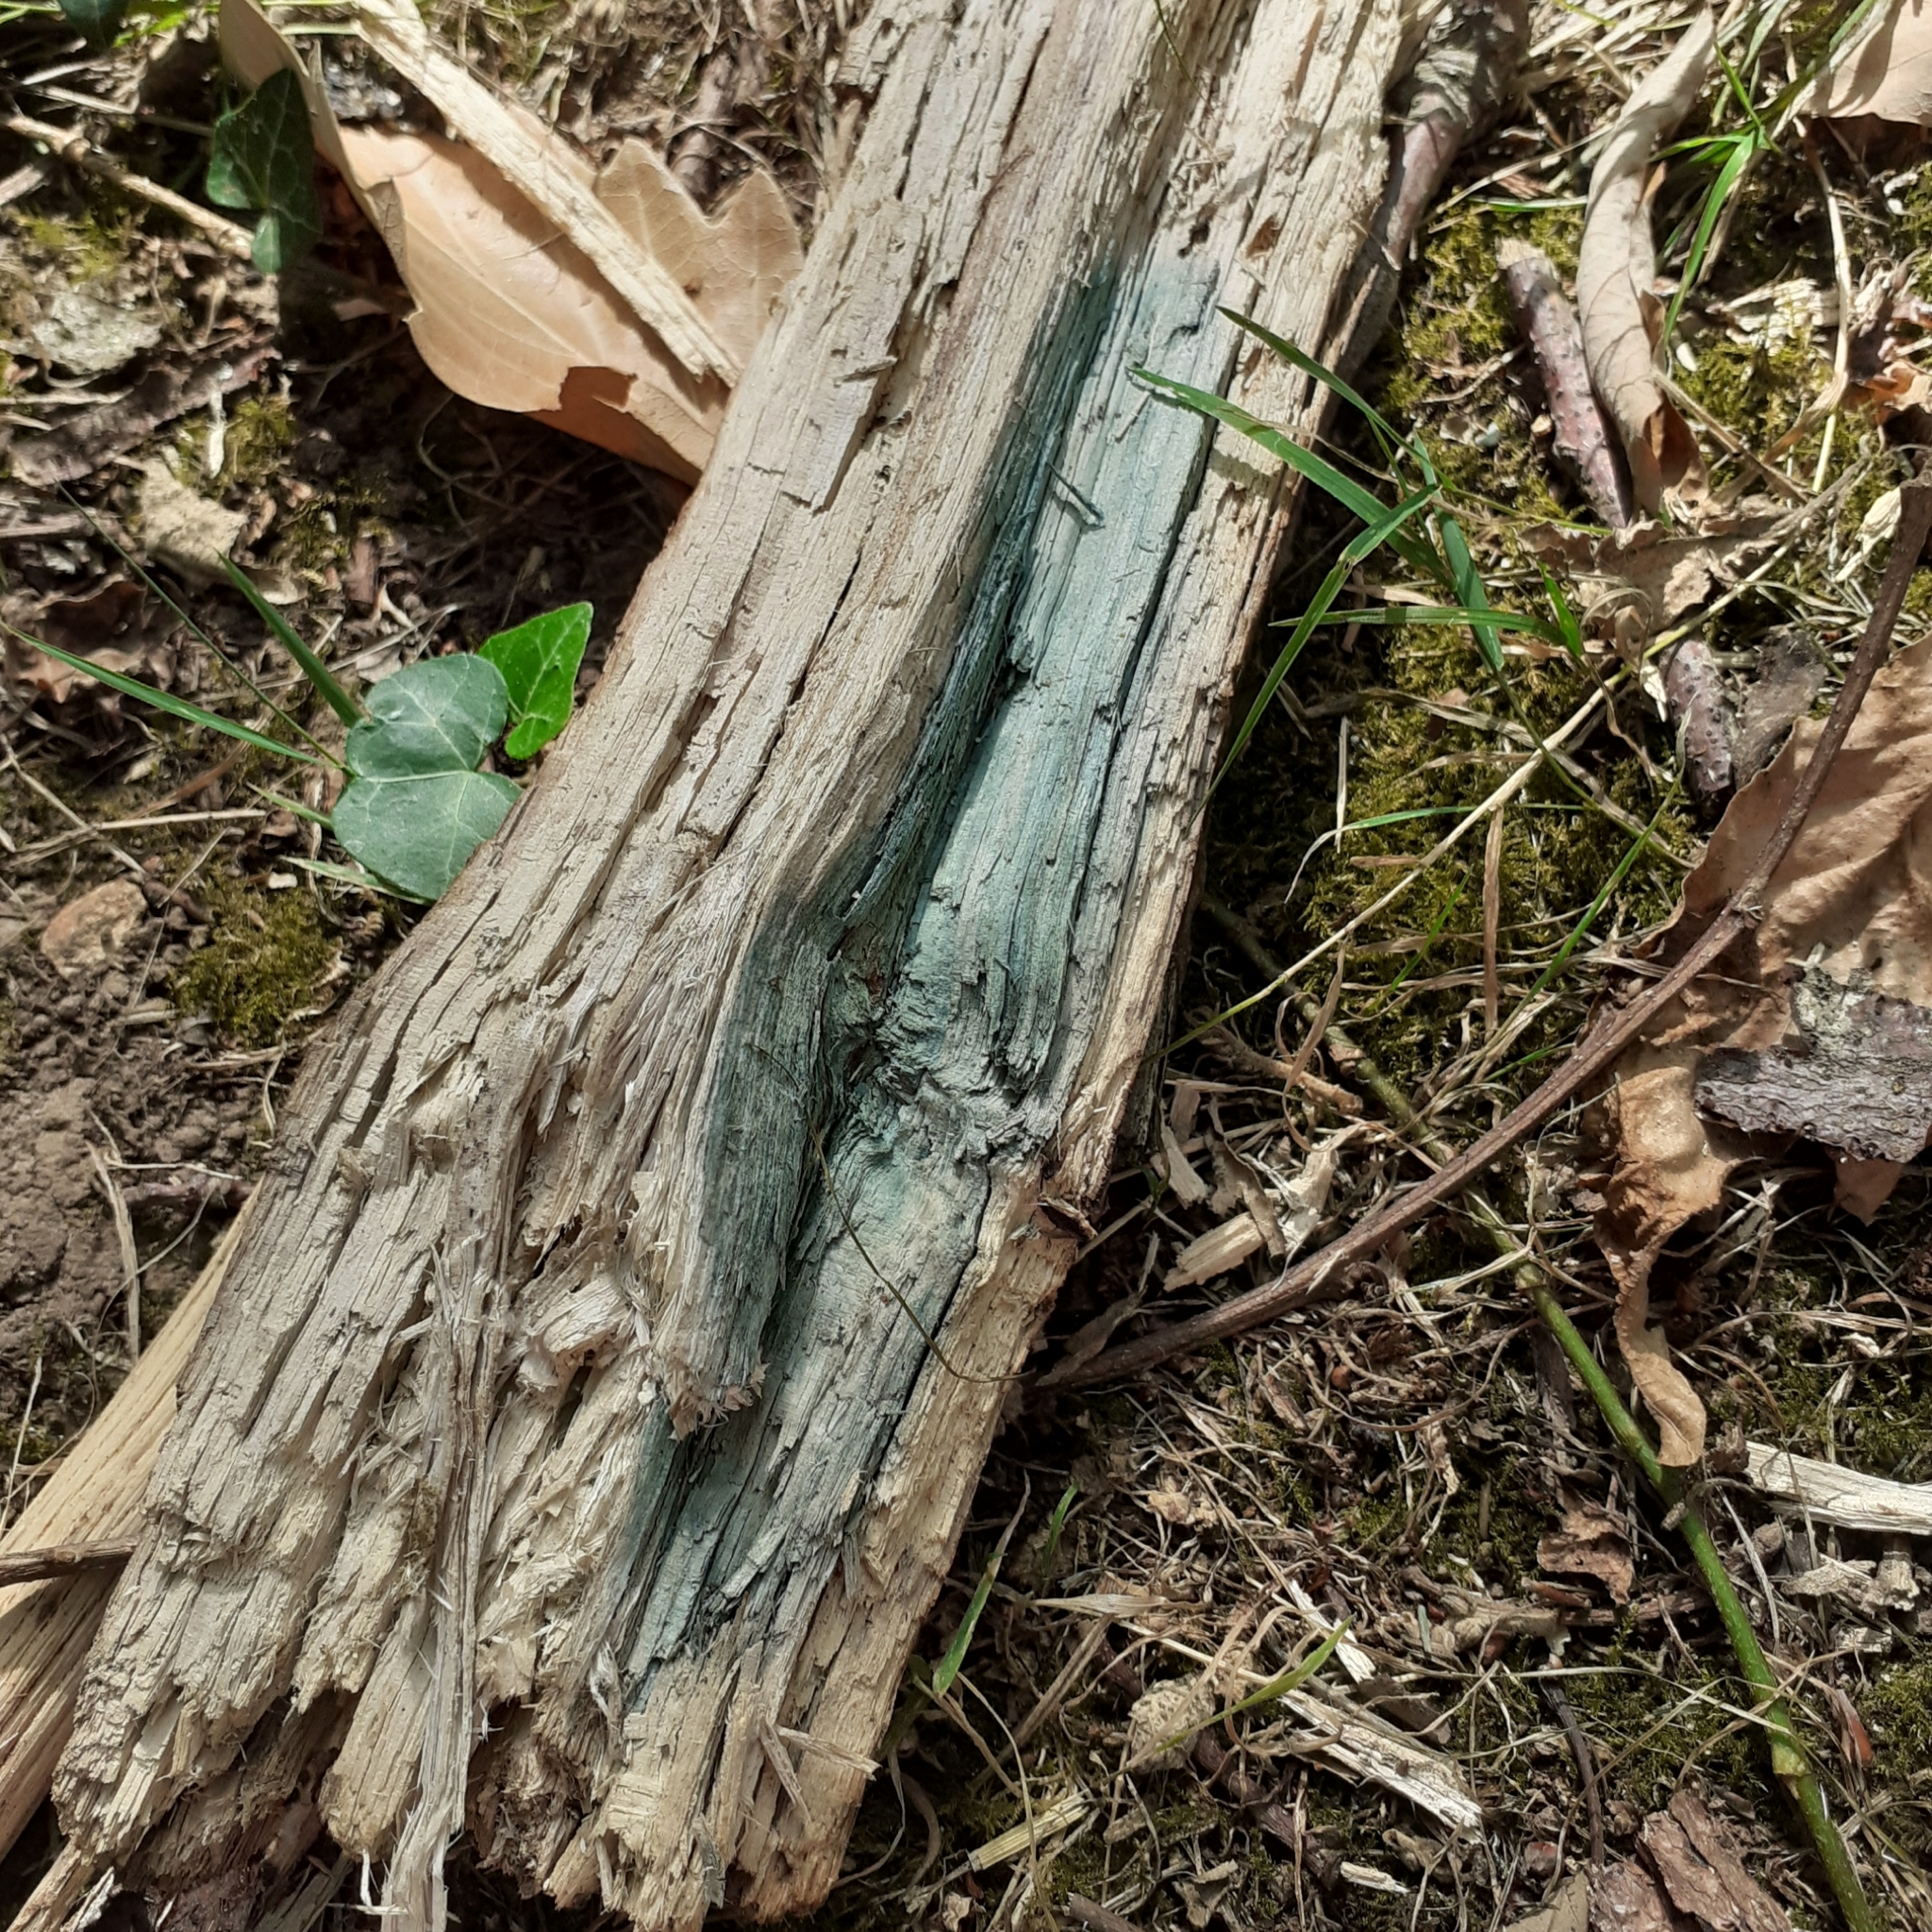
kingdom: Fungi
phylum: Ascomycota
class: Leotiomycetes
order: Helotiales
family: Chlorociboriaceae
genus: Chlorociboria
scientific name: Chlorociboria
